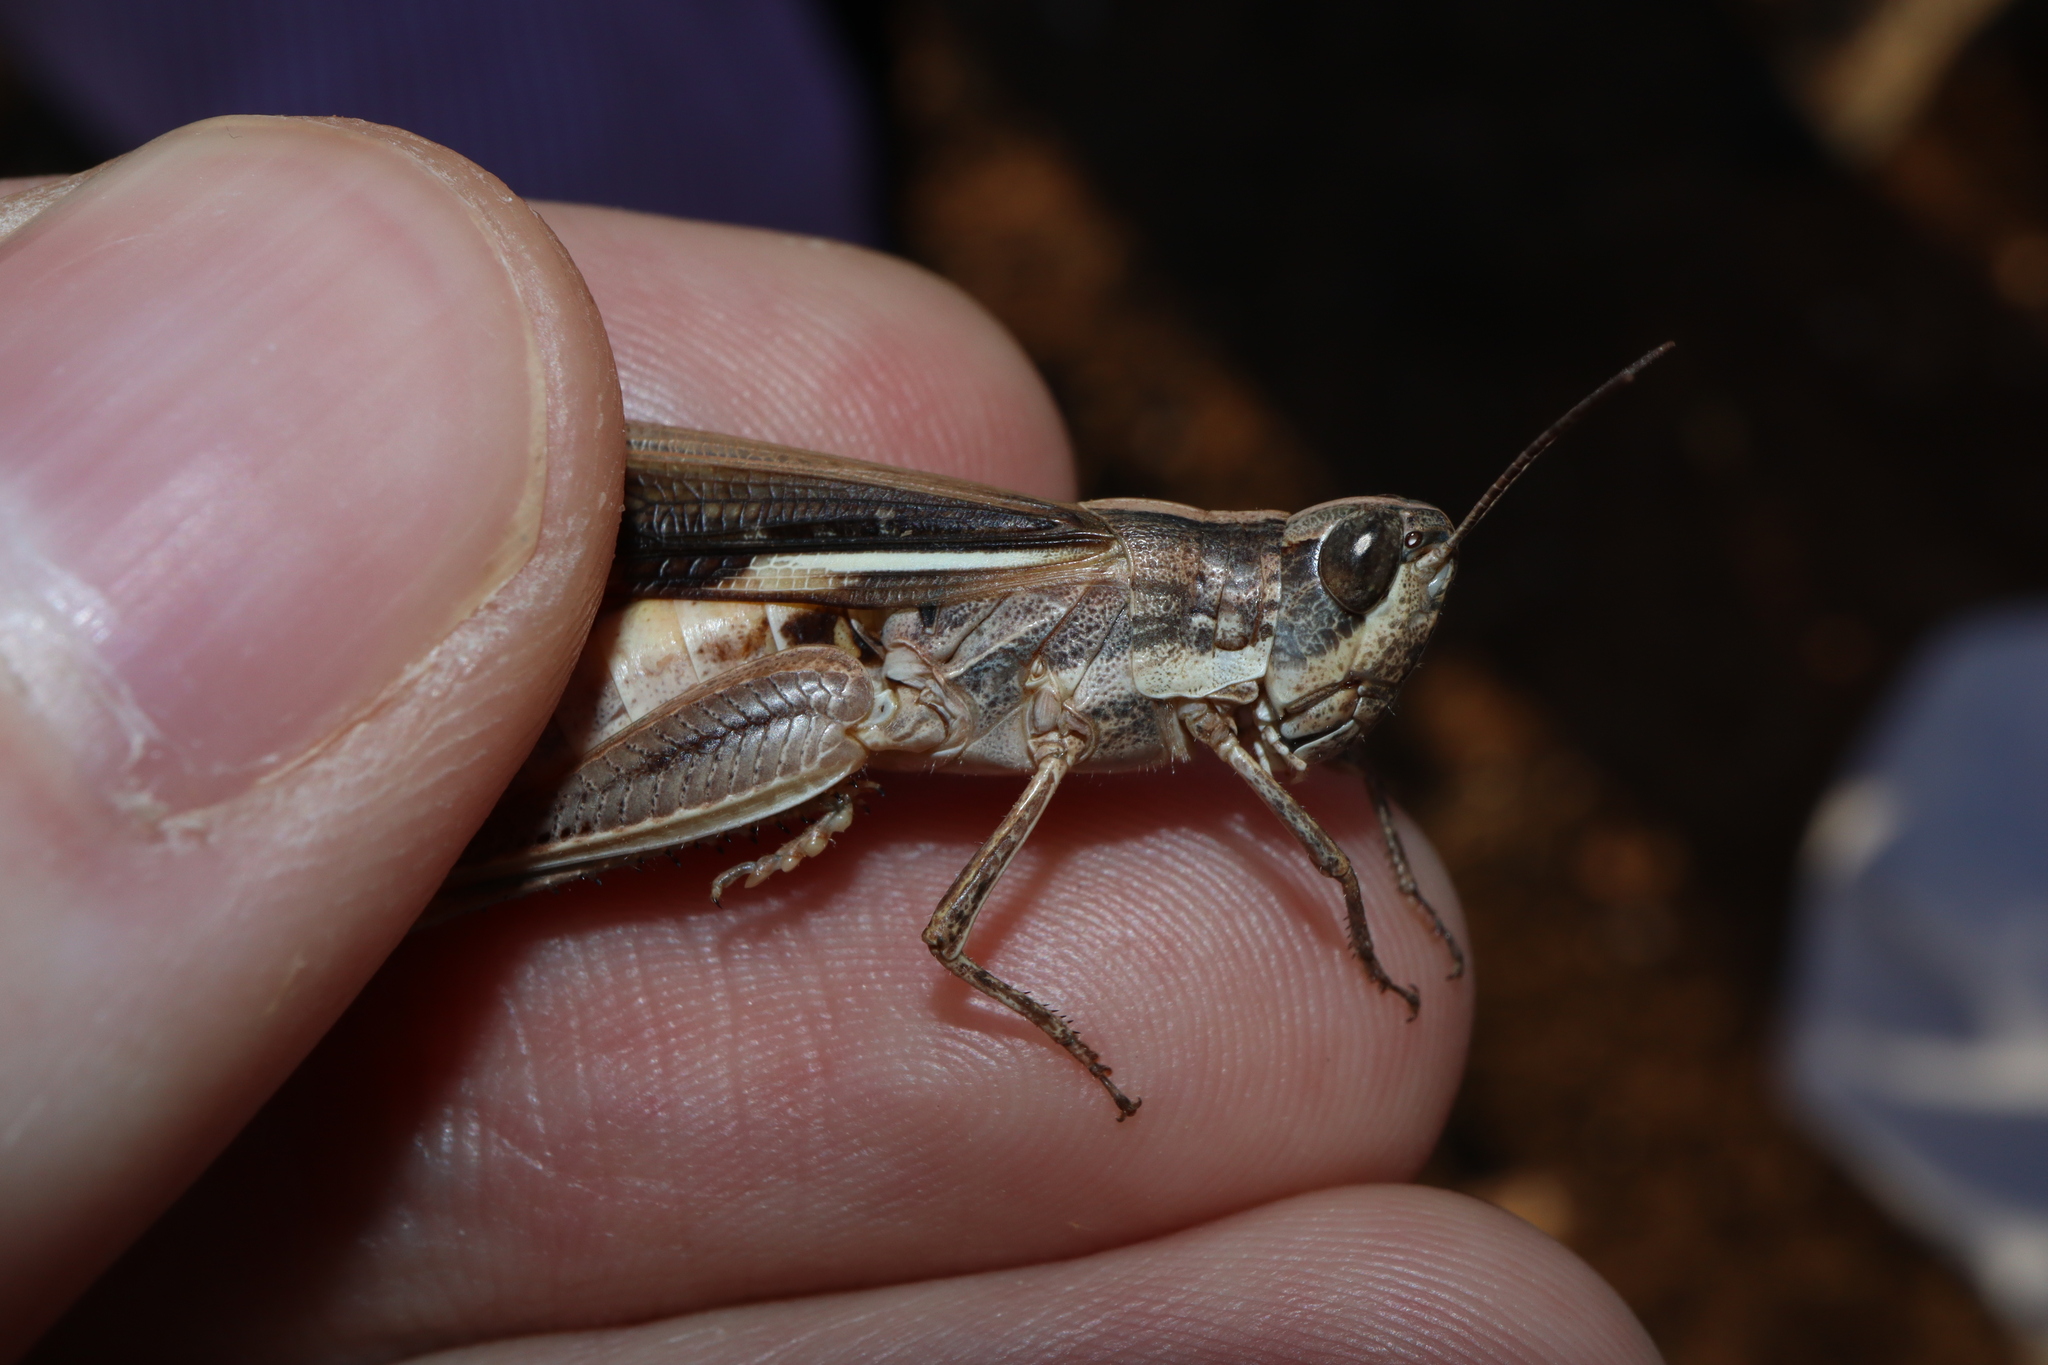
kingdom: Animalia
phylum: Arthropoda
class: Insecta
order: Orthoptera
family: Acrididae
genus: Aiolopus
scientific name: Aiolopus thalassinus
